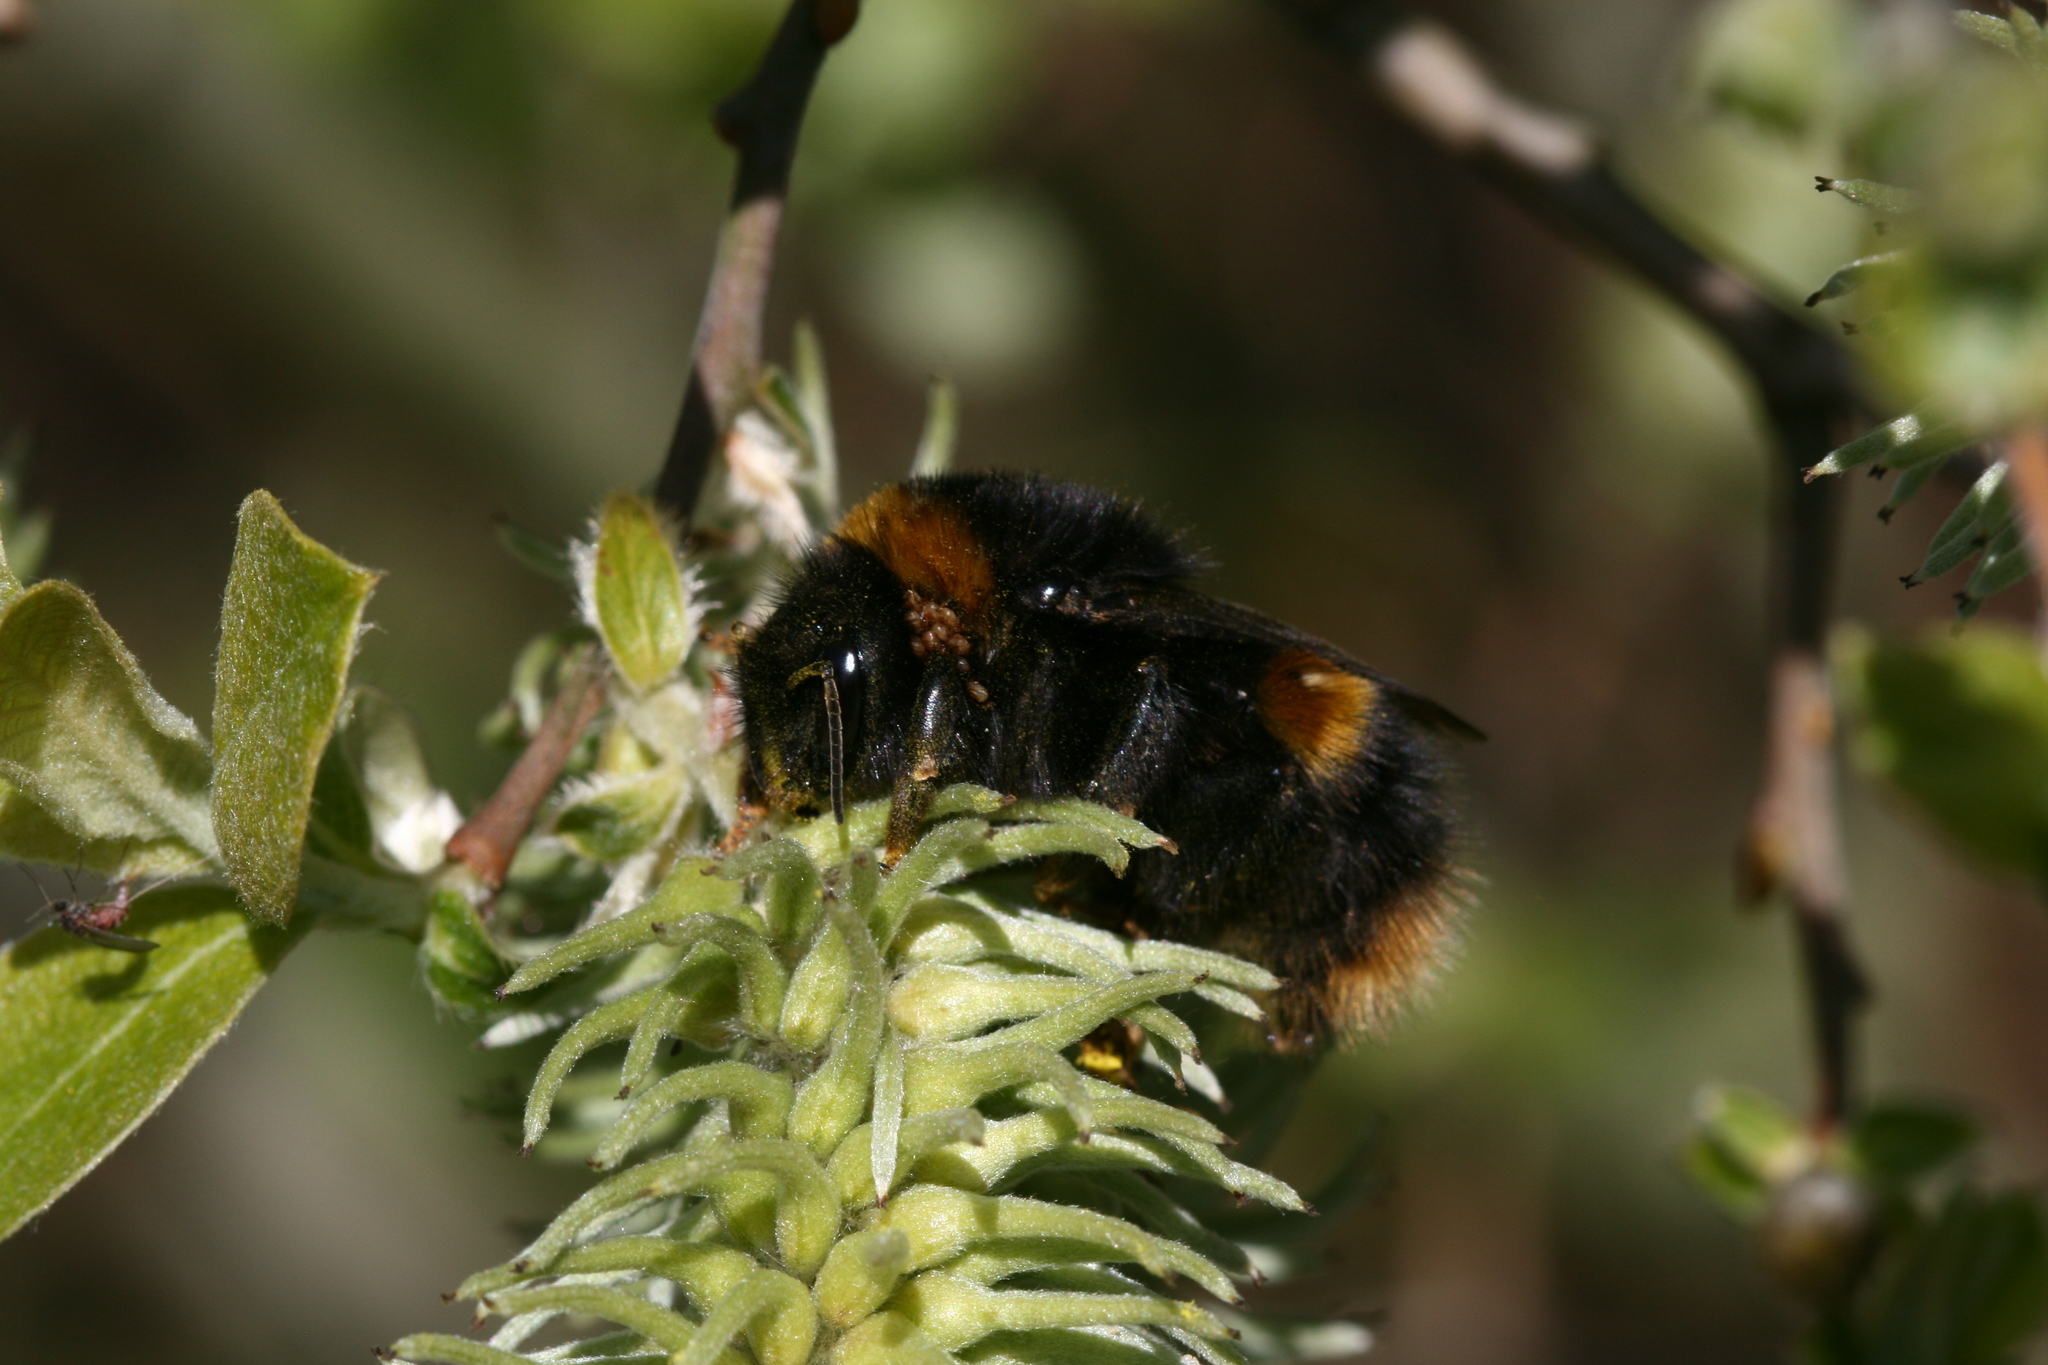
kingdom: Animalia
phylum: Arthropoda
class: Insecta
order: Hymenoptera
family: Apidae
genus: Bombus
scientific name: Bombus terrestris
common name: Buff-tailed bumblebee
